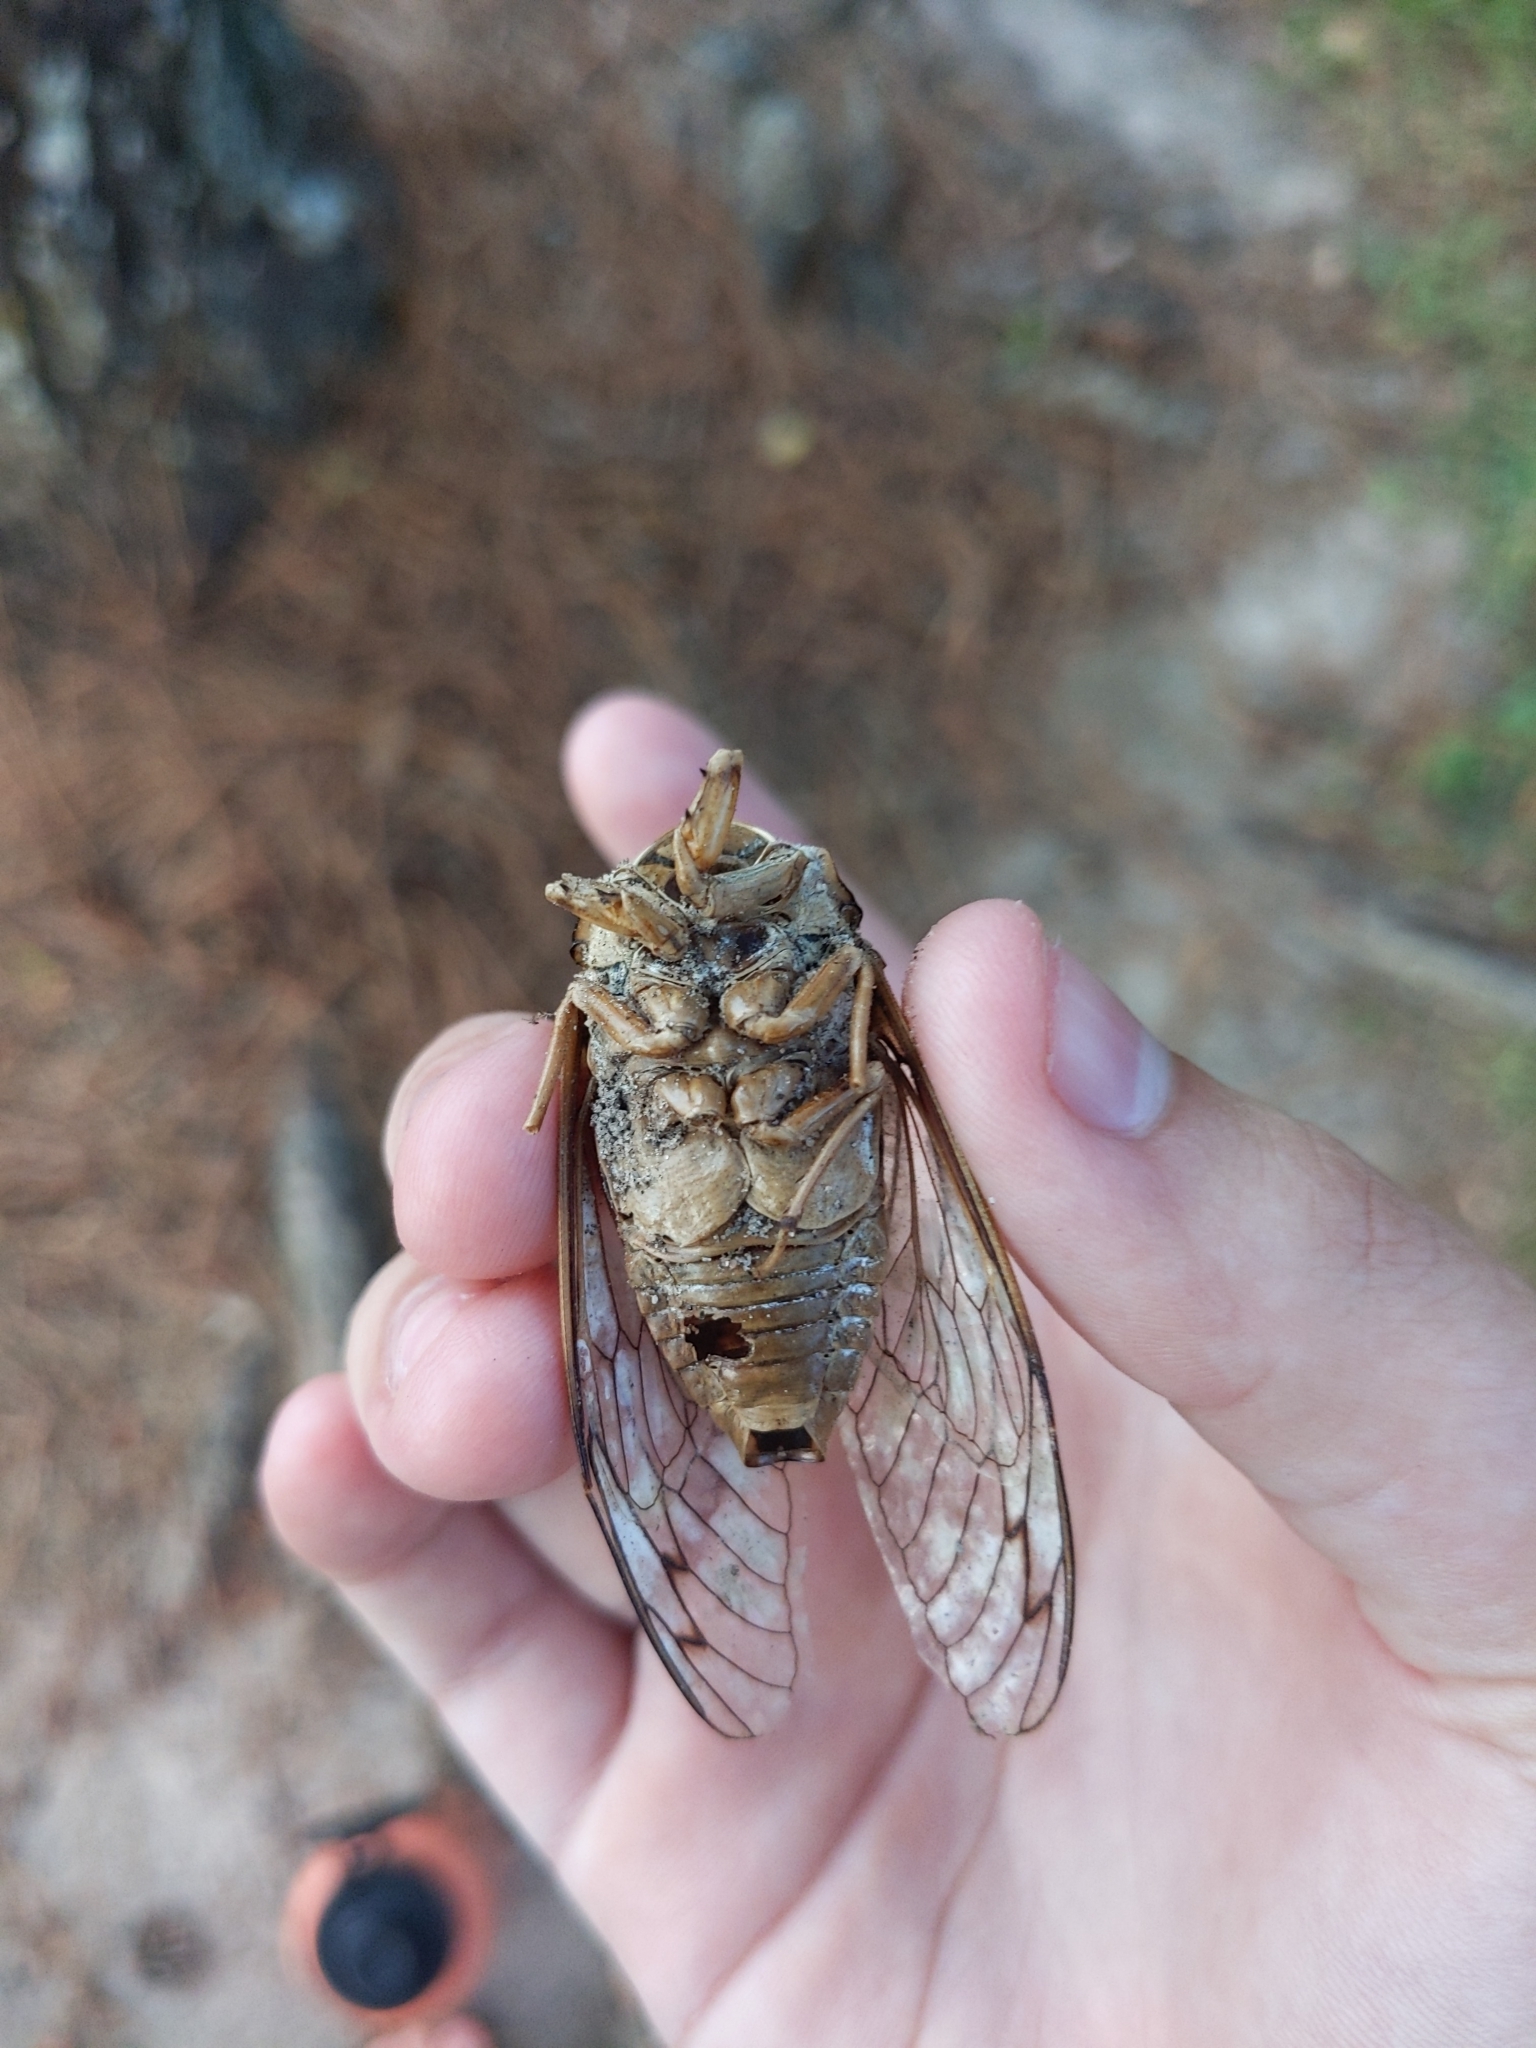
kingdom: Animalia
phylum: Arthropoda
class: Insecta
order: Hemiptera
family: Cicadidae
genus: Megatibicen
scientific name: Megatibicen resh
